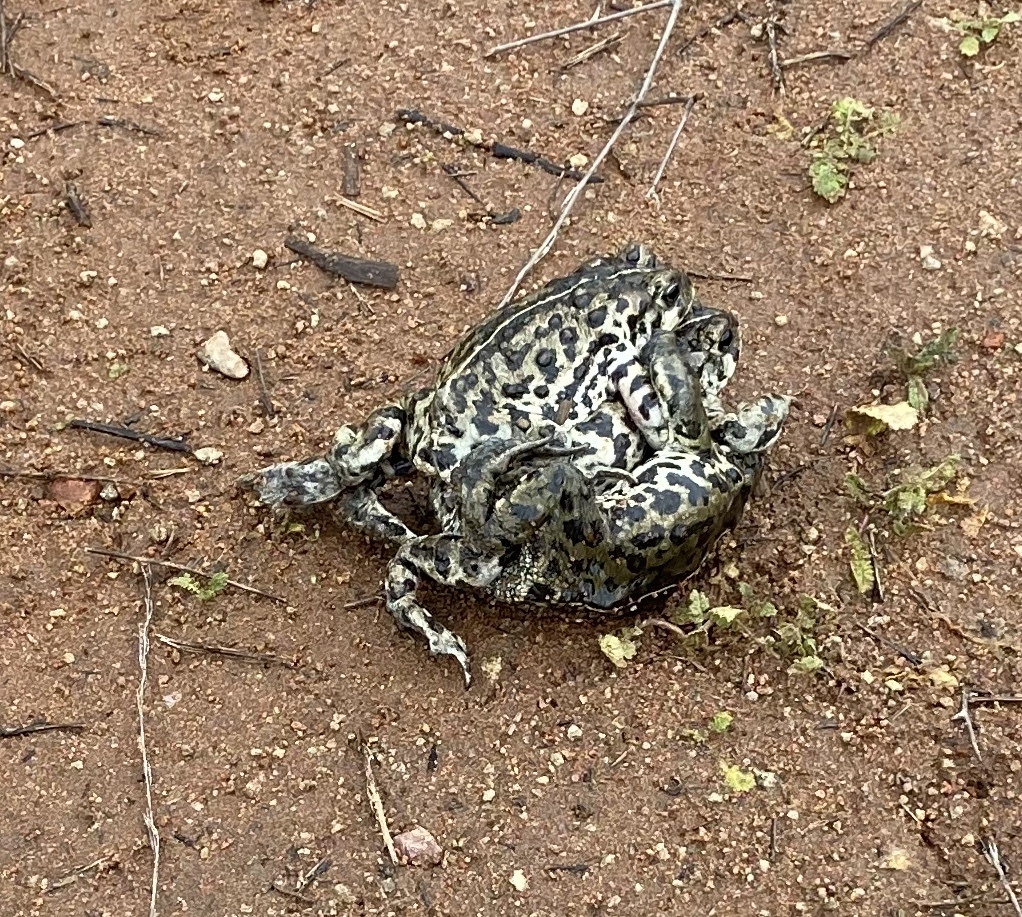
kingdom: Animalia
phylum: Chordata
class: Amphibia
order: Anura
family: Bufonidae
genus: Anaxyrus
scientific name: Anaxyrus boreas
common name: Western toad
